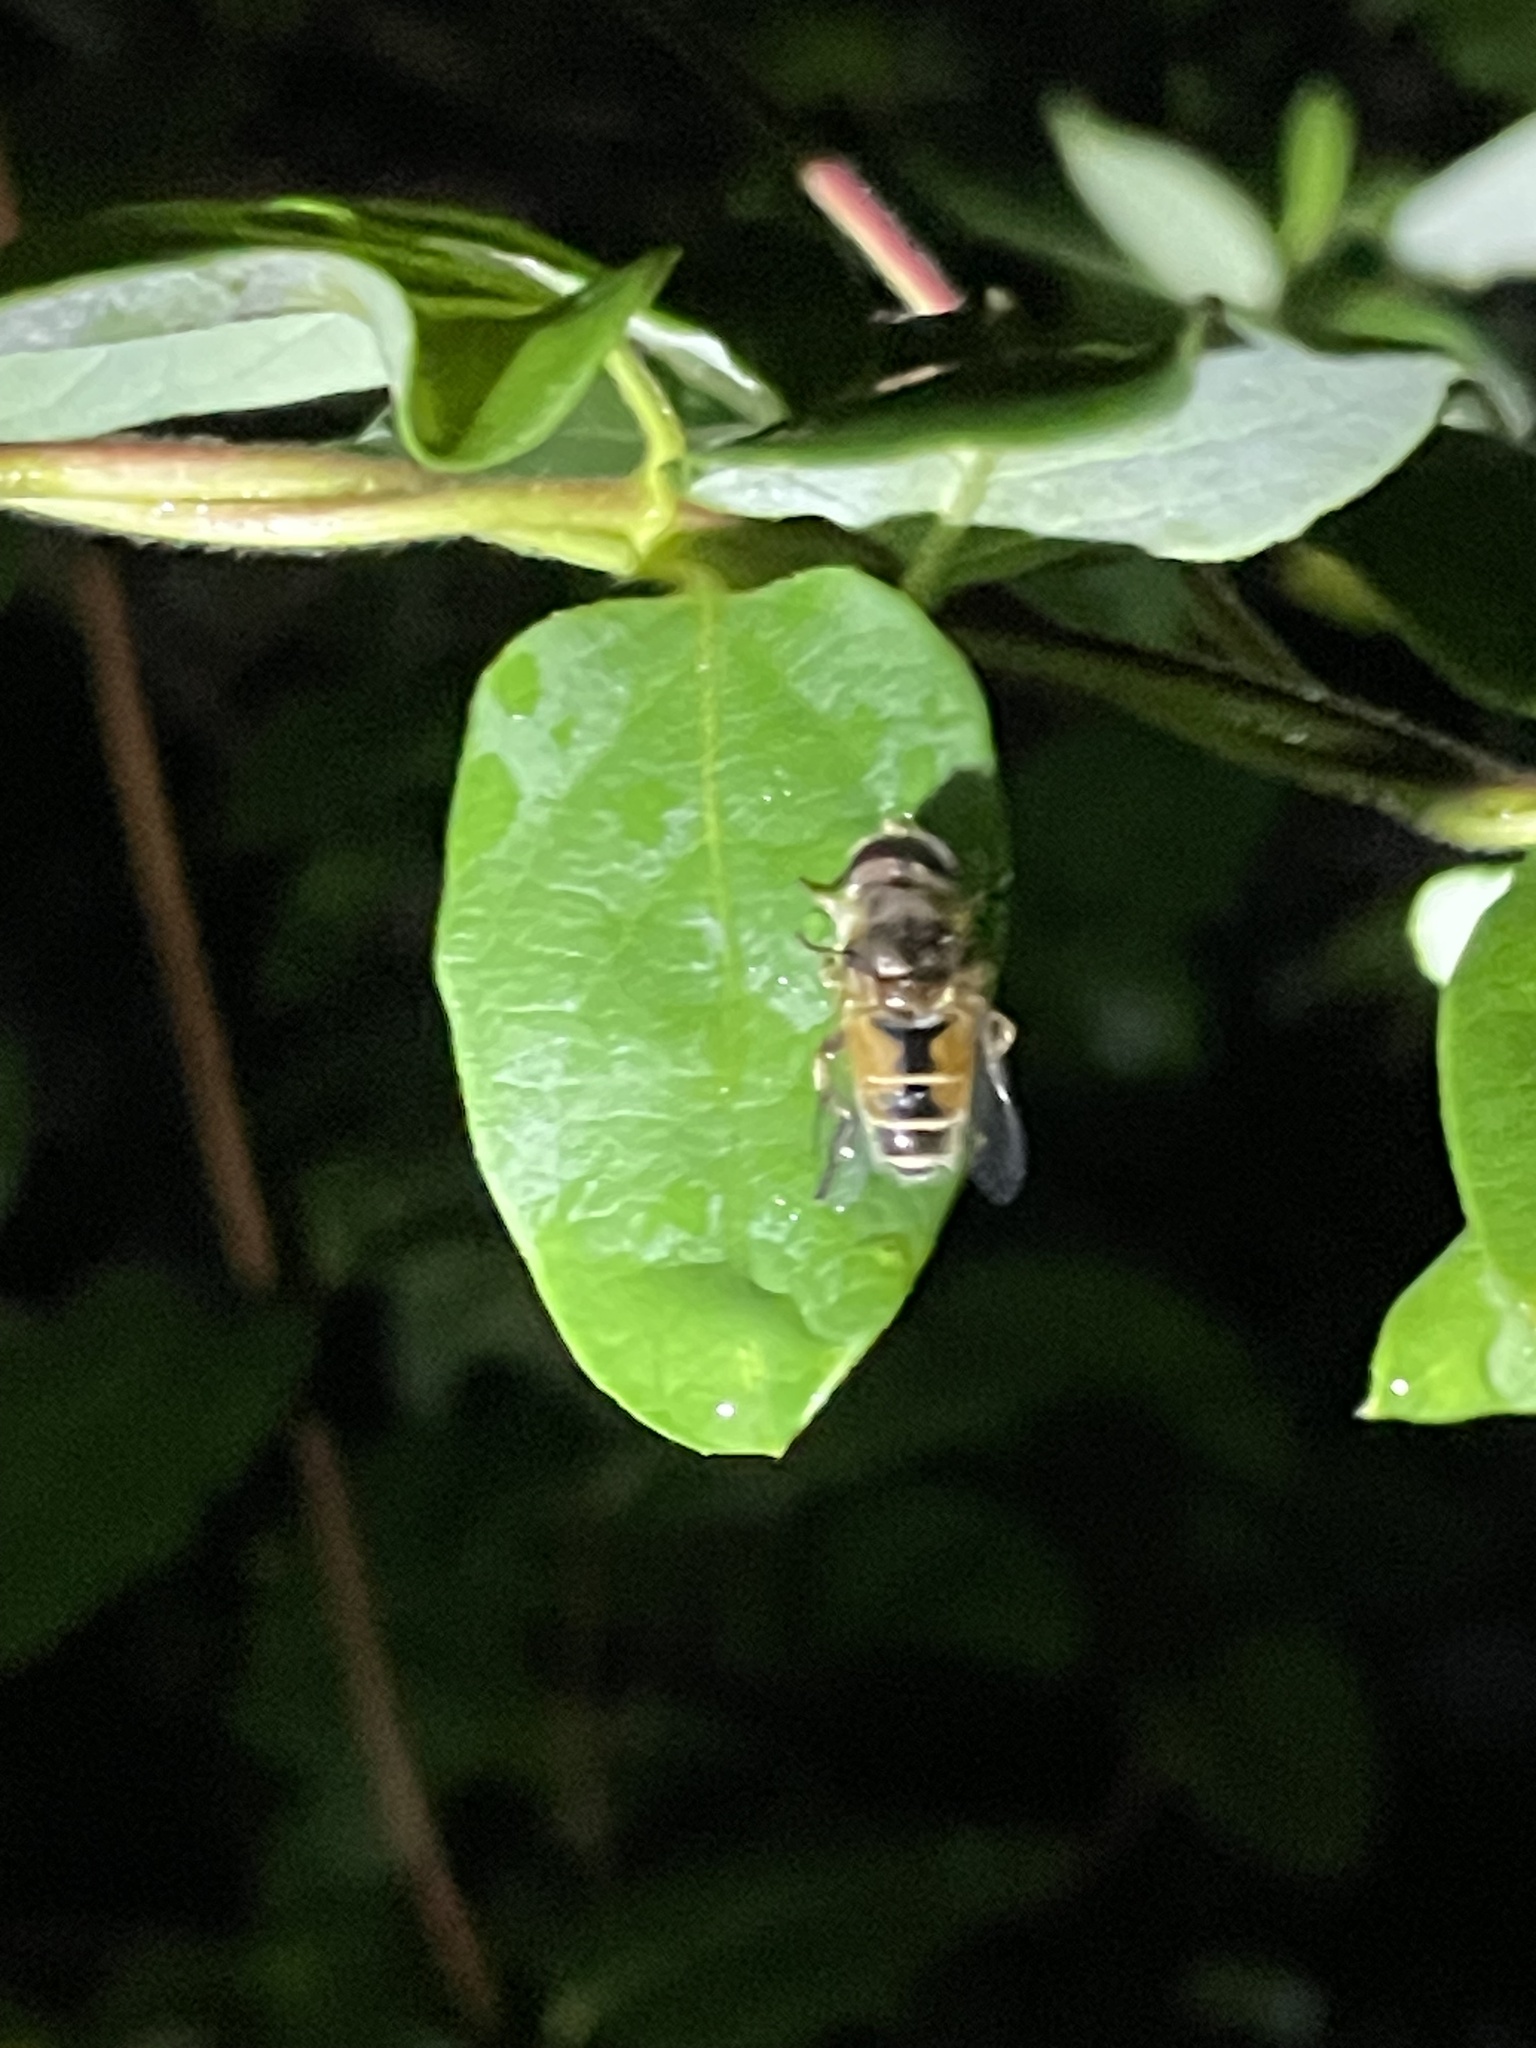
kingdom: Animalia
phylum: Arthropoda
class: Insecta
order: Diptera
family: Syrphidae
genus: Eristalis
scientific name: Eristalis arbustorum
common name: Hover fly
